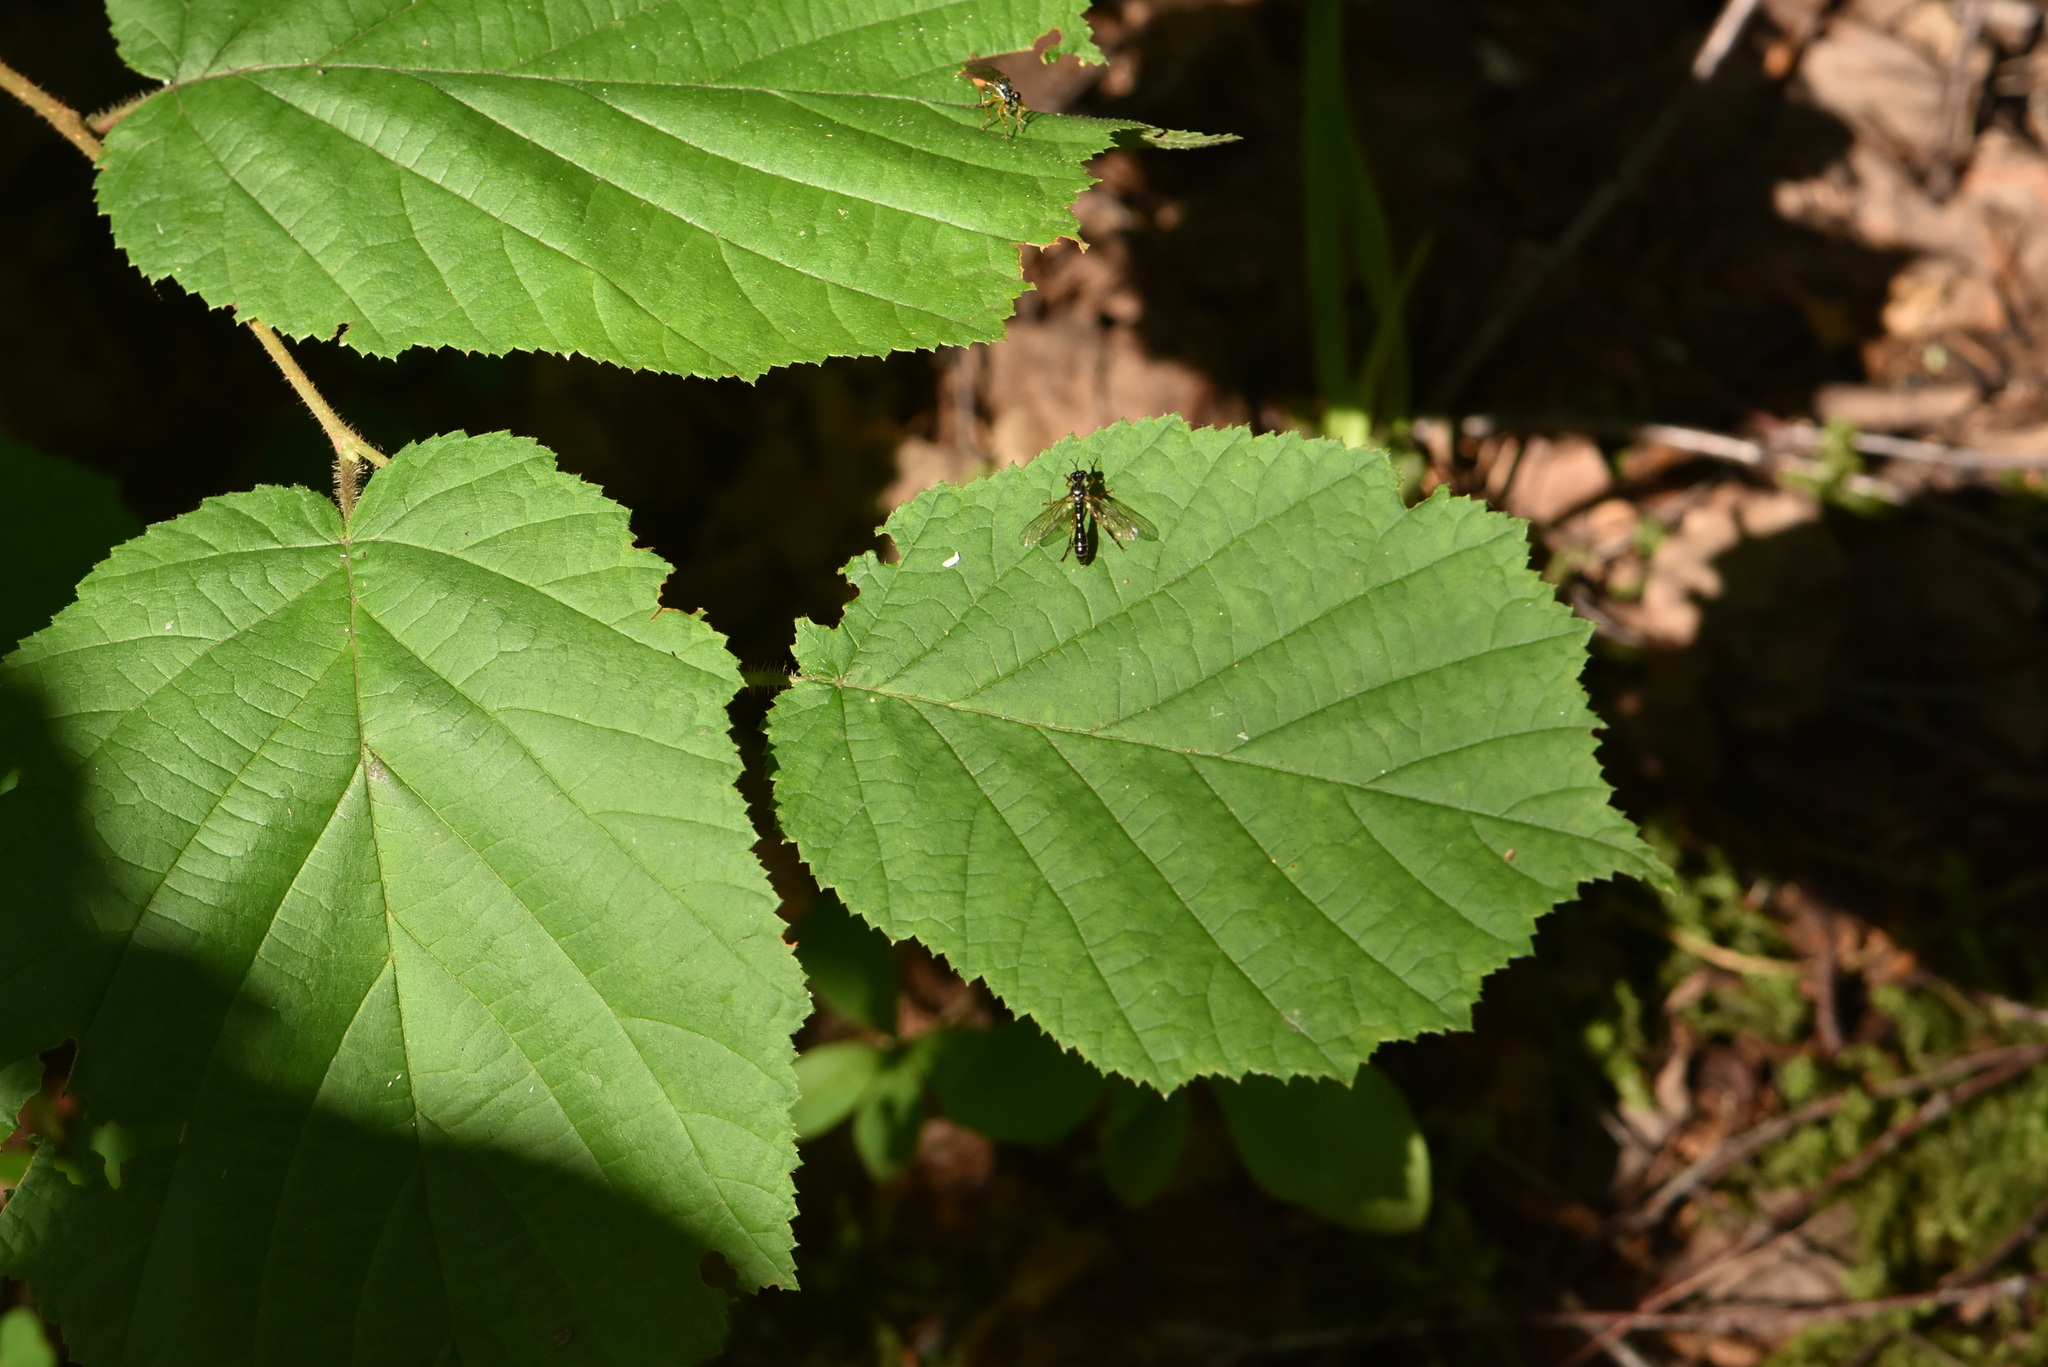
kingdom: Plantae
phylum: Tracheophyta
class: Magnoliopsida
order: Fagales
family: Betulaceae
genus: Corylus
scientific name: Corylus avellana
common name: European hazel
